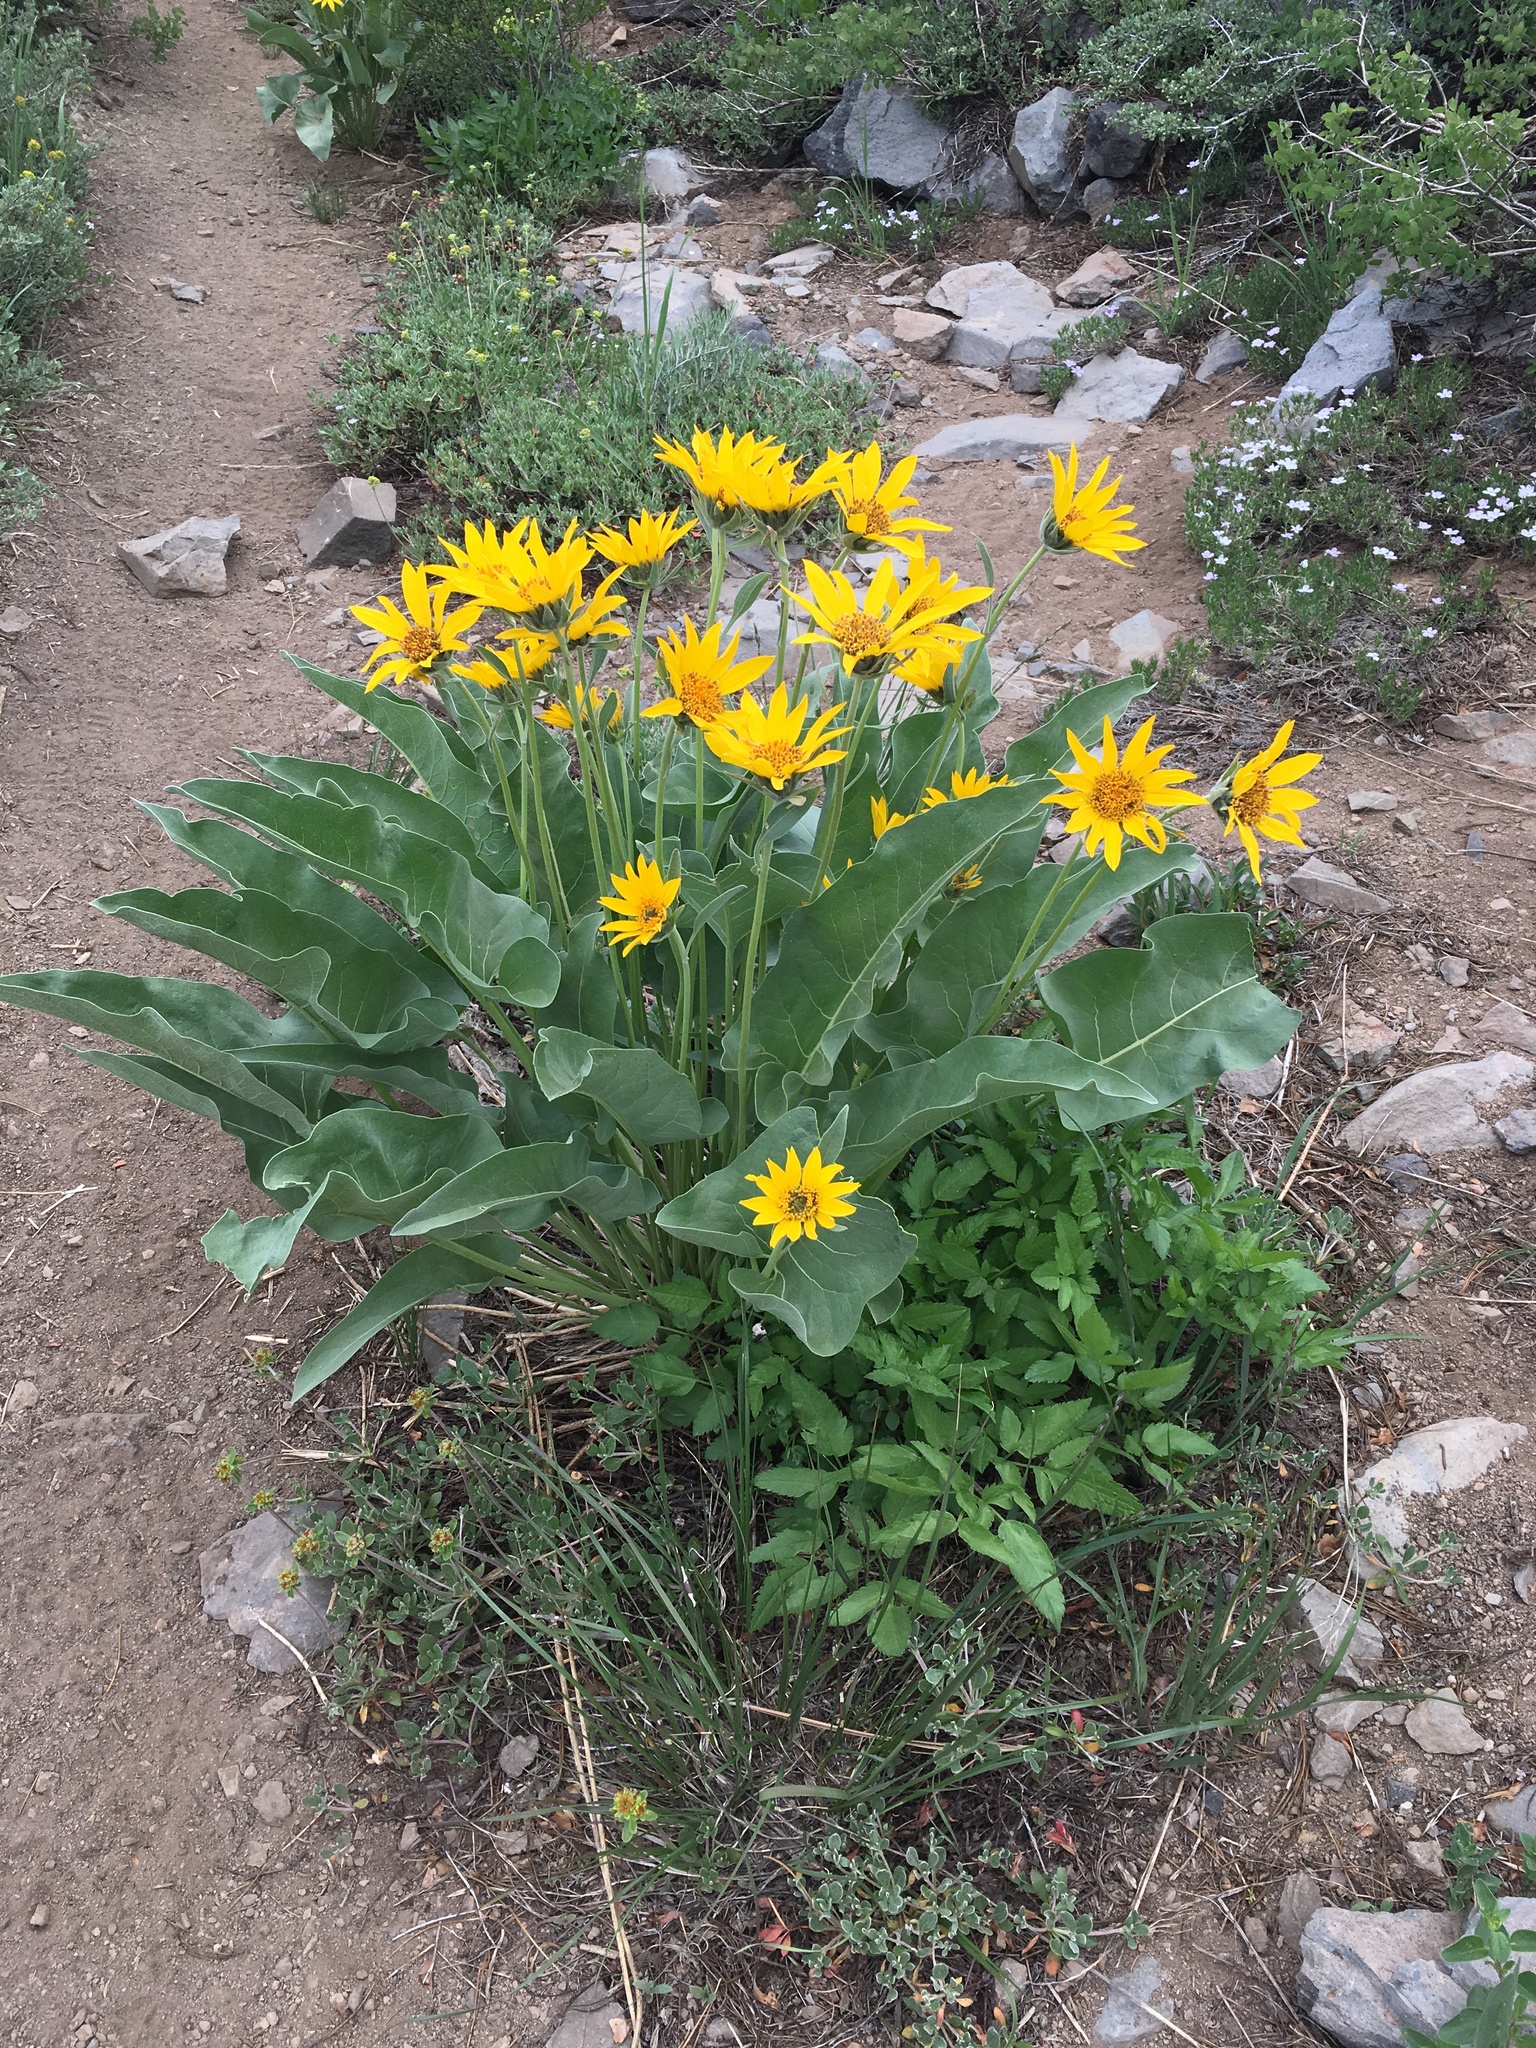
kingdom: Plantae
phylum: Tracheophyta
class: Magnoliopsida
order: Asterales
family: Asteraceae
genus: Wyethia
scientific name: Wyethia sagittata
